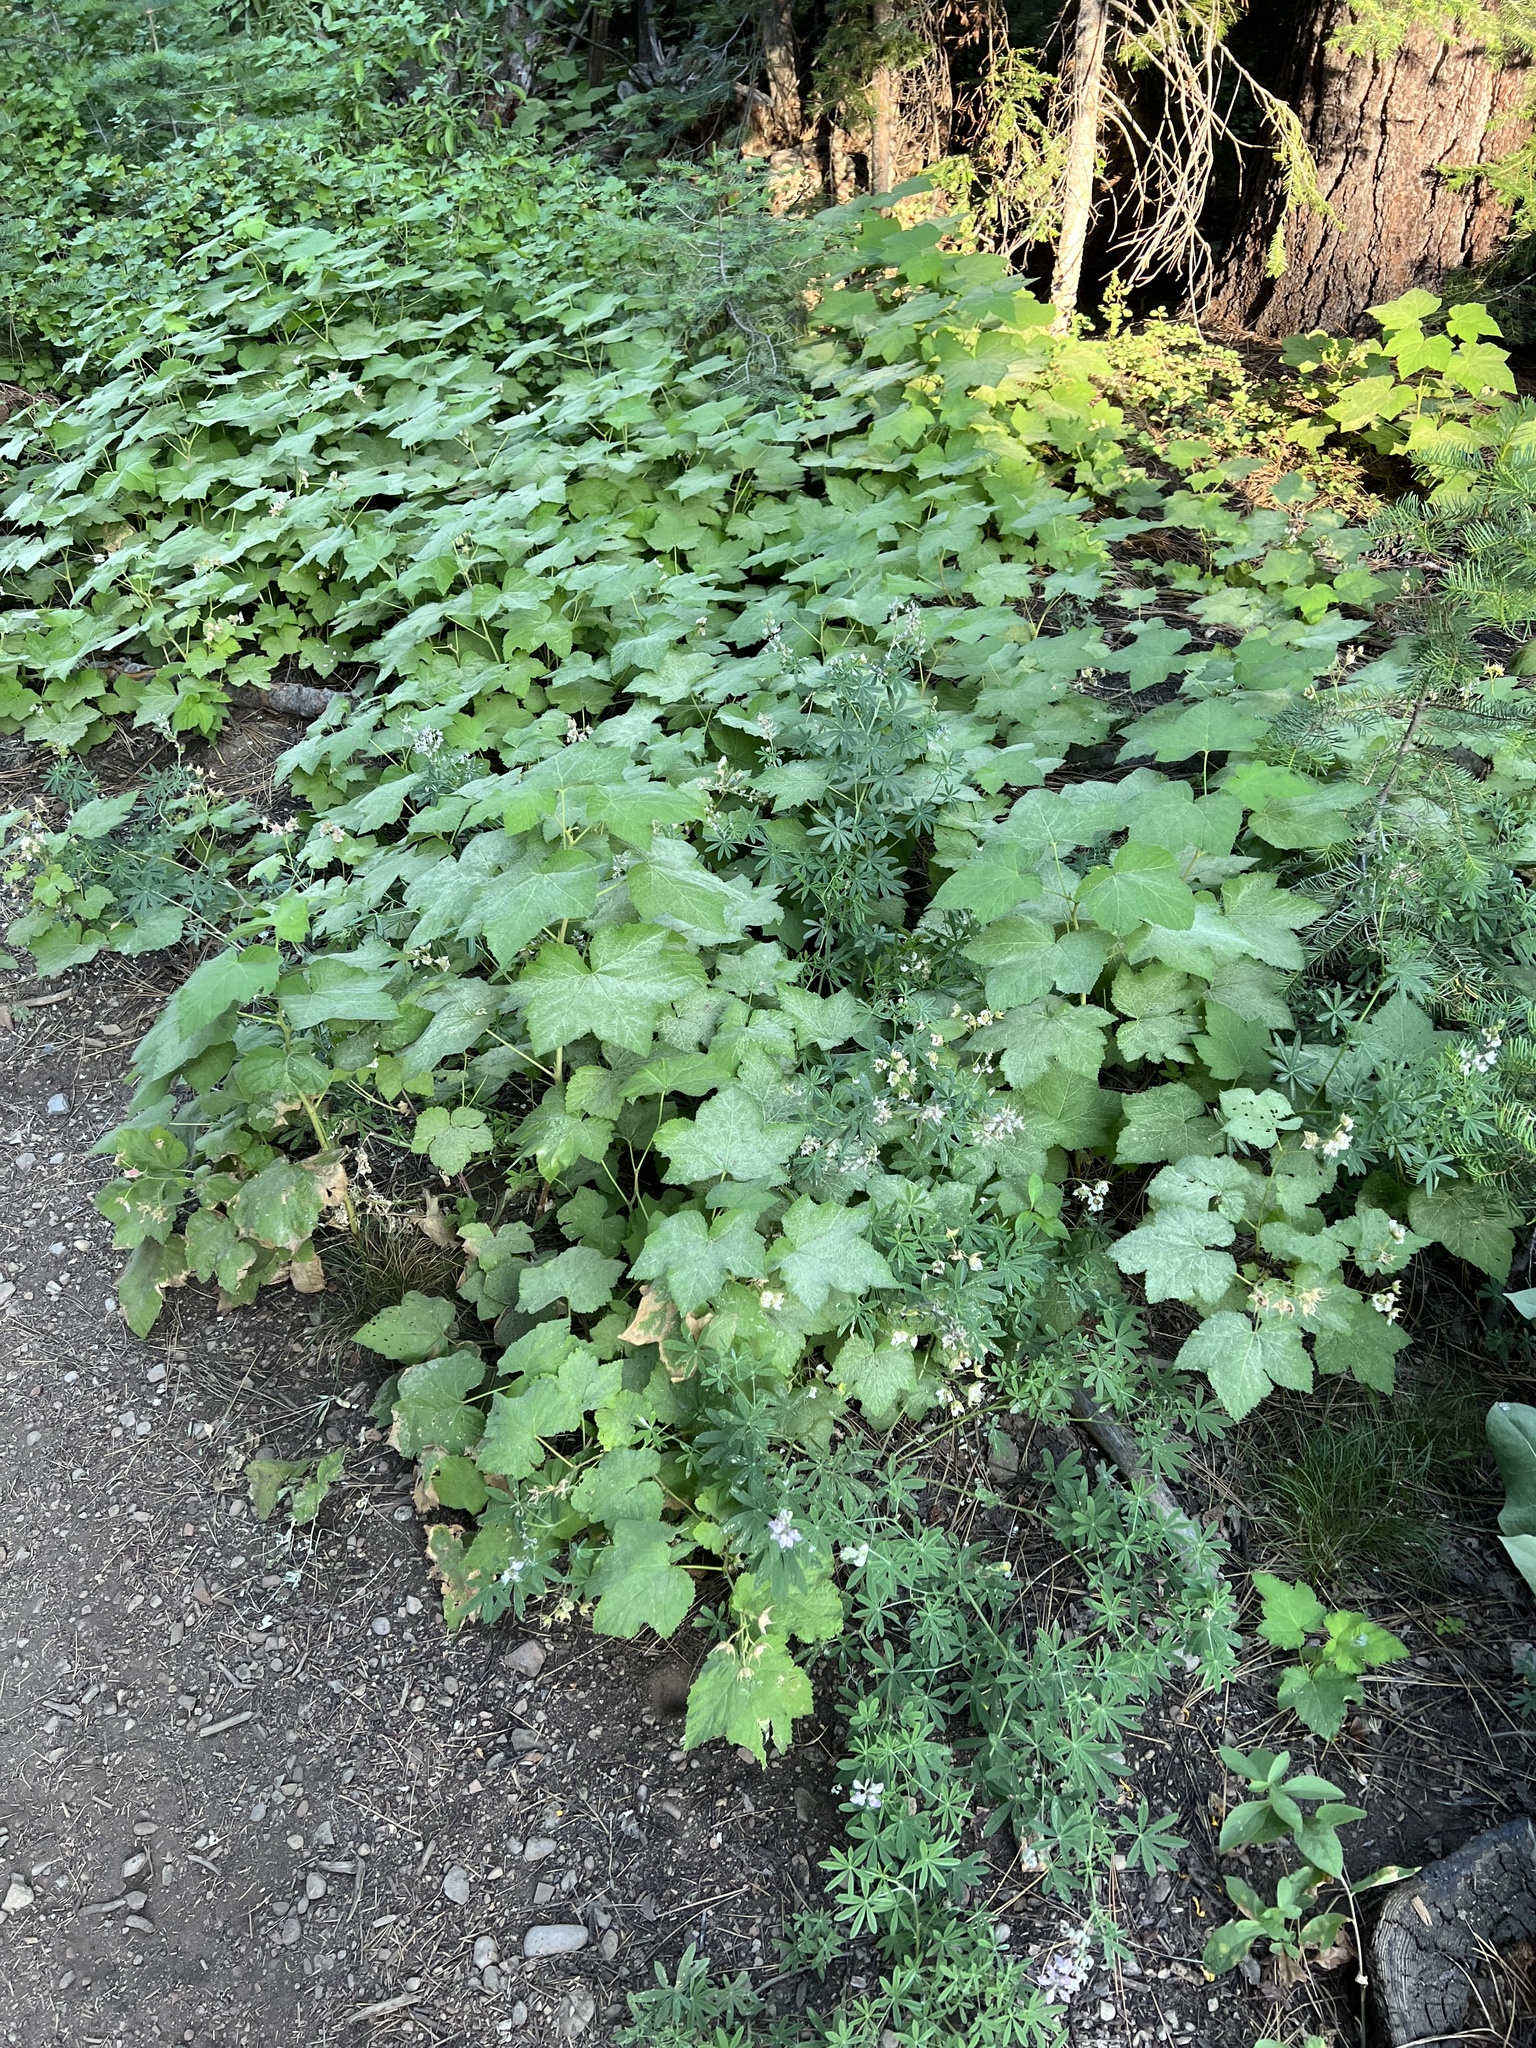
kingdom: Plantae
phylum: Tracheophyta
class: Magnoliopsida
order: Rosales
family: Rosaceae
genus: Rubus
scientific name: Rubus parviflorus
